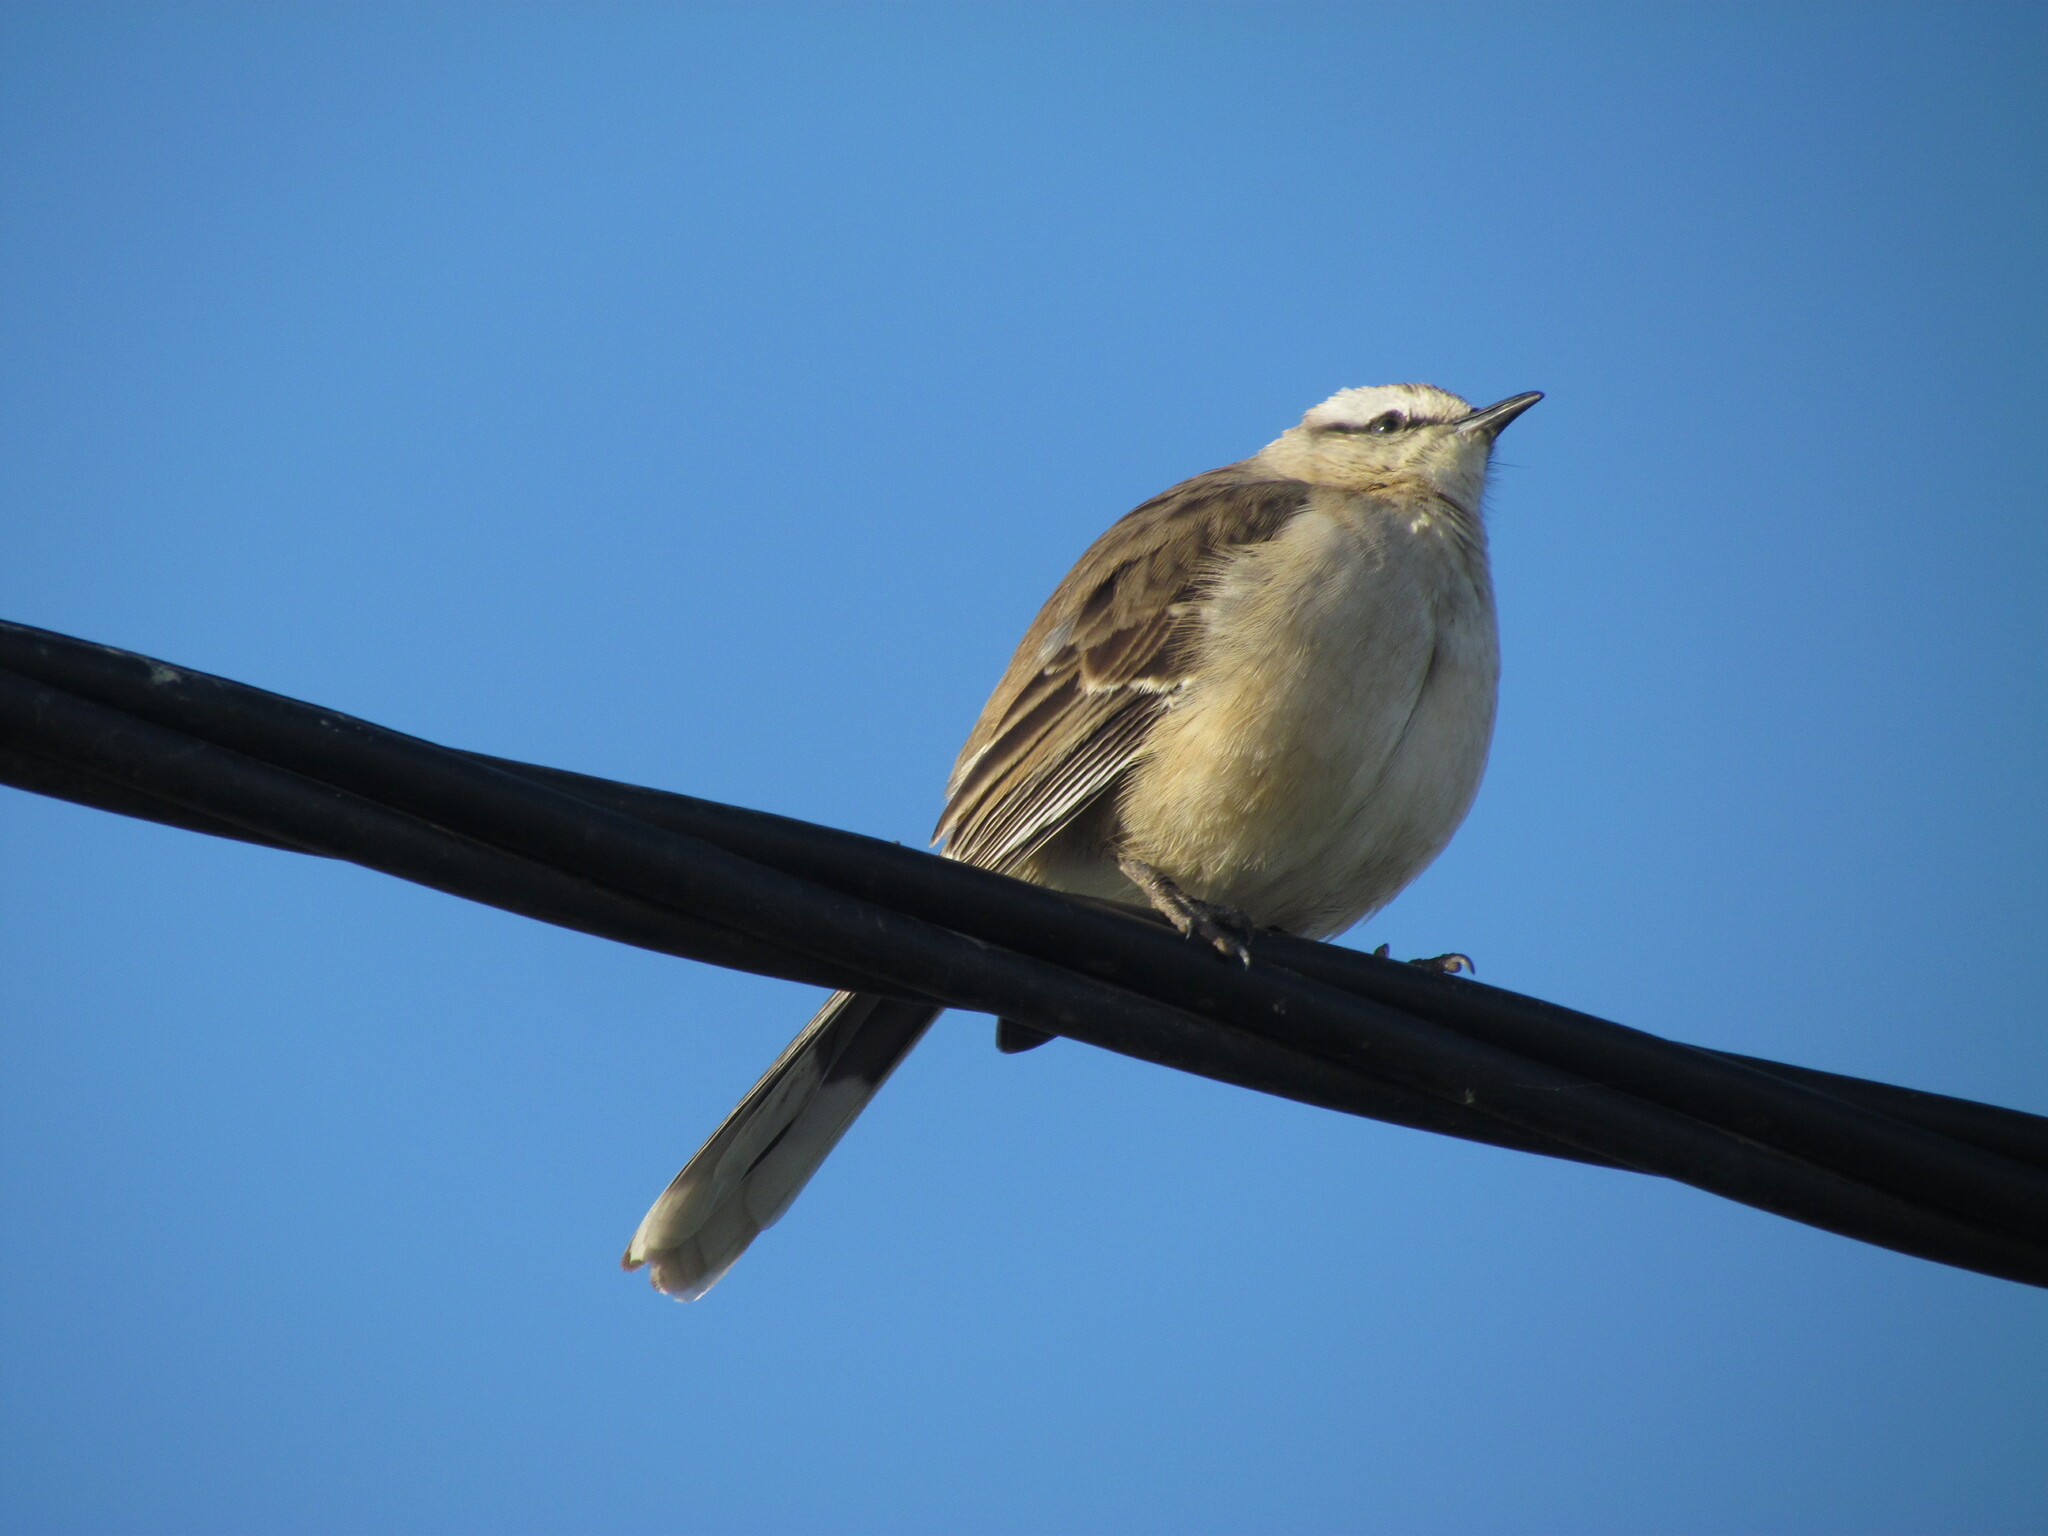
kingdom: Animalia
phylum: Chordata
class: Aves
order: Passeriformes
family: Mimidae
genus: Mimus
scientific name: Mimus saturninus
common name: Chalk-browed mockingbird
